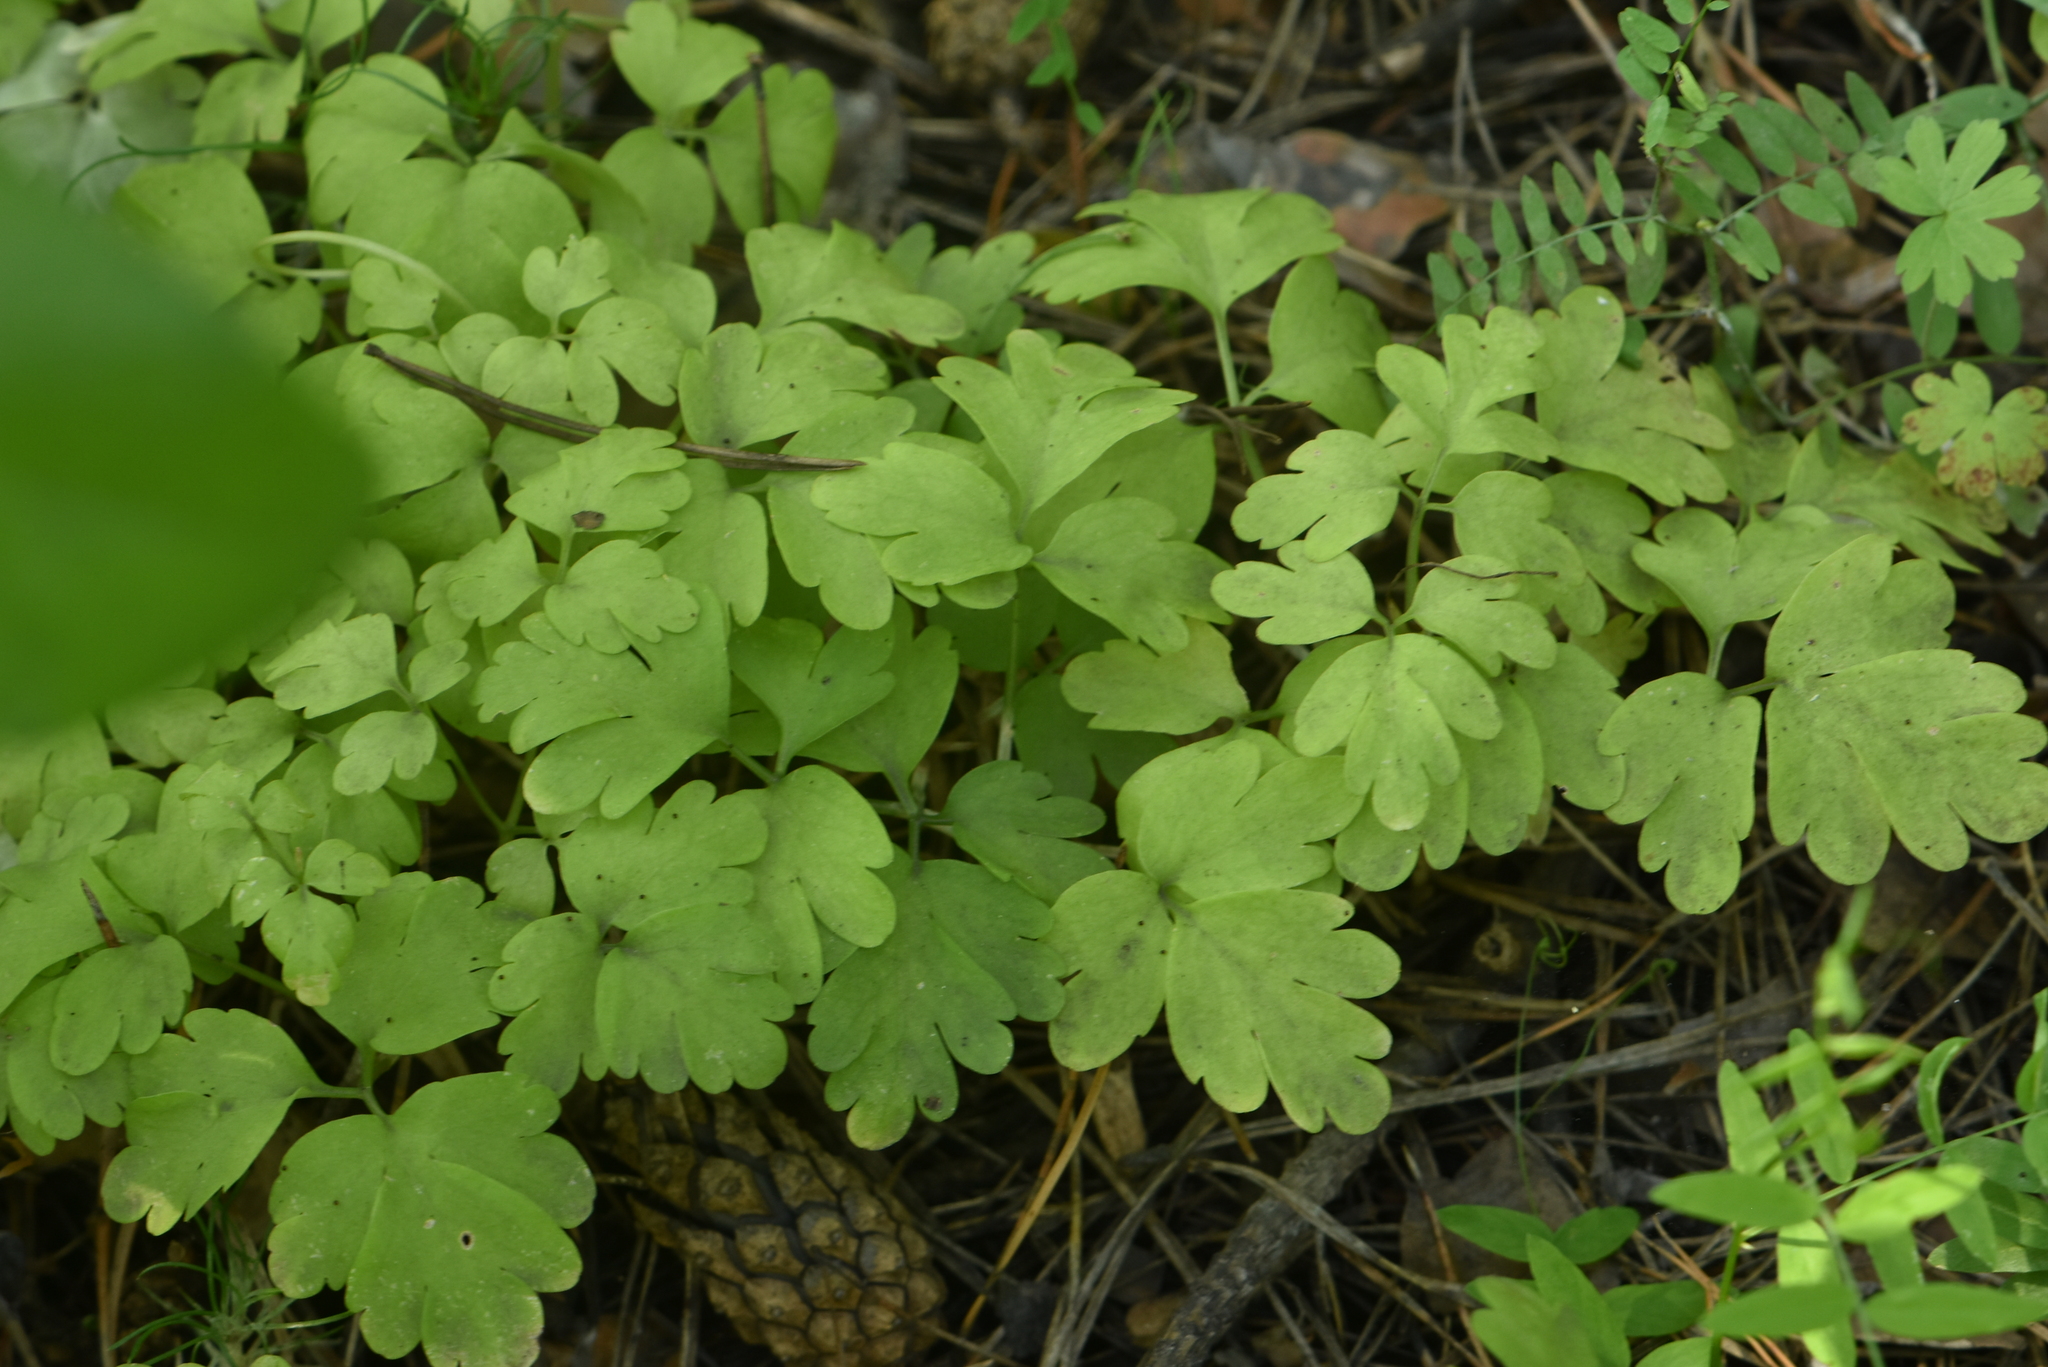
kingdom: Plantae
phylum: Tracheophyta
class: Magnoliopsida
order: Dipsacales
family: Viburnaceae
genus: Adoxa
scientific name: Adoxa moschatellina
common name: Moschatel
